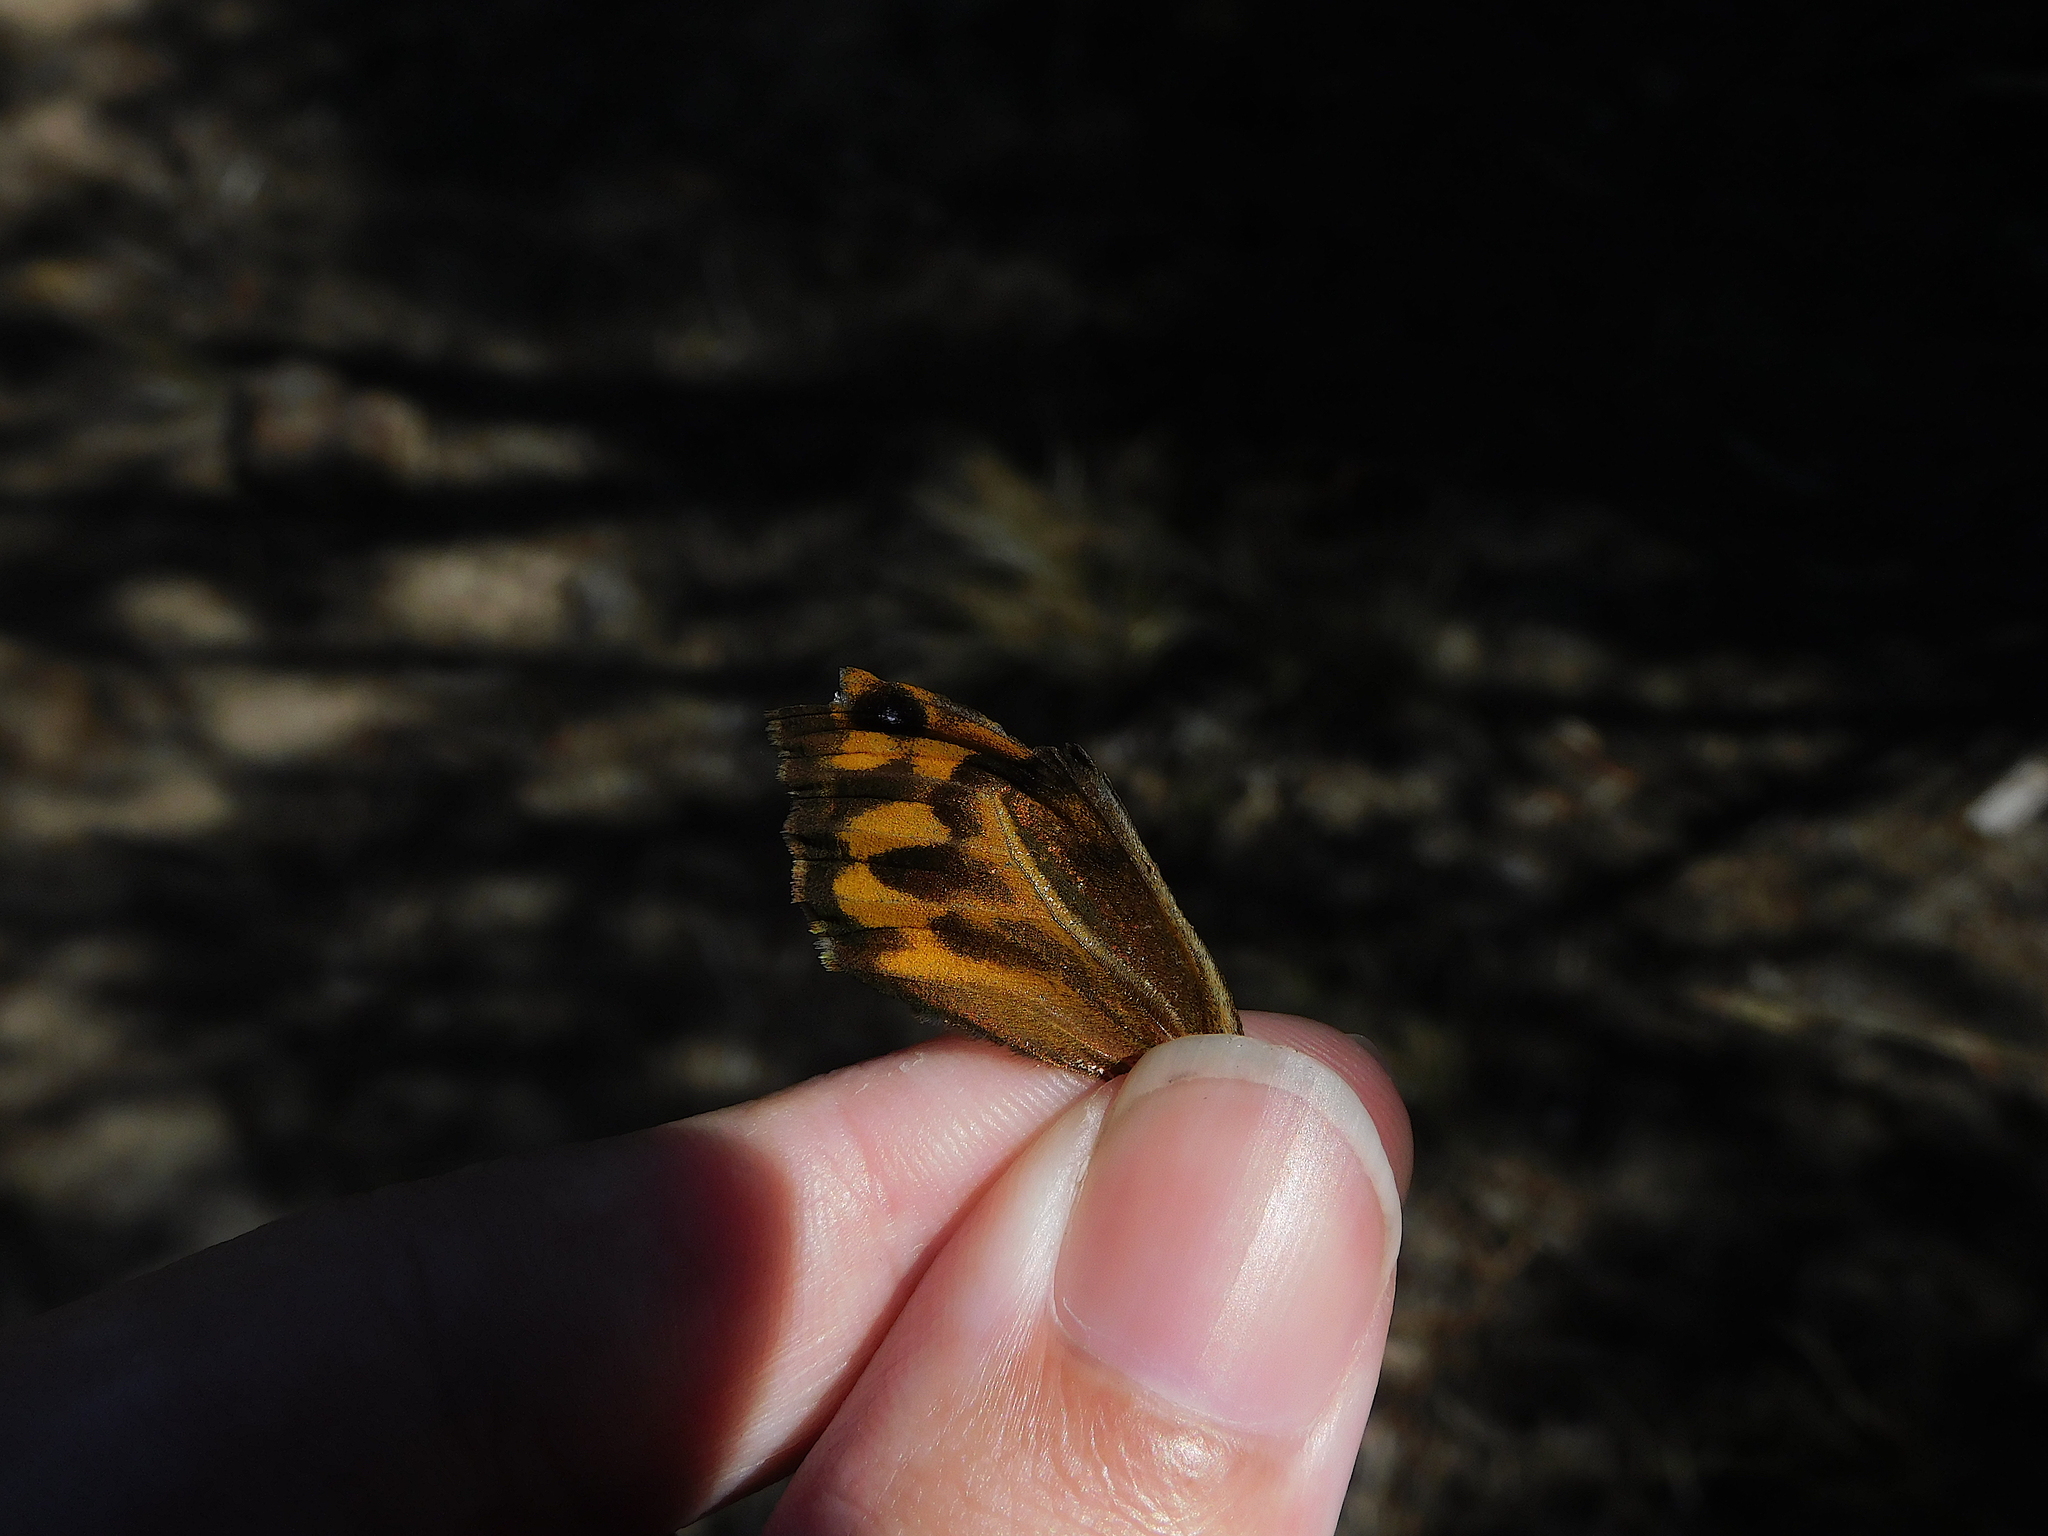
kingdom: Animalia
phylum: Arthropoda
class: Insecta
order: Lepidoptera
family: Nymphalidae
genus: Heteronympha
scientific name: Heteronympha merope
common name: Common brown
